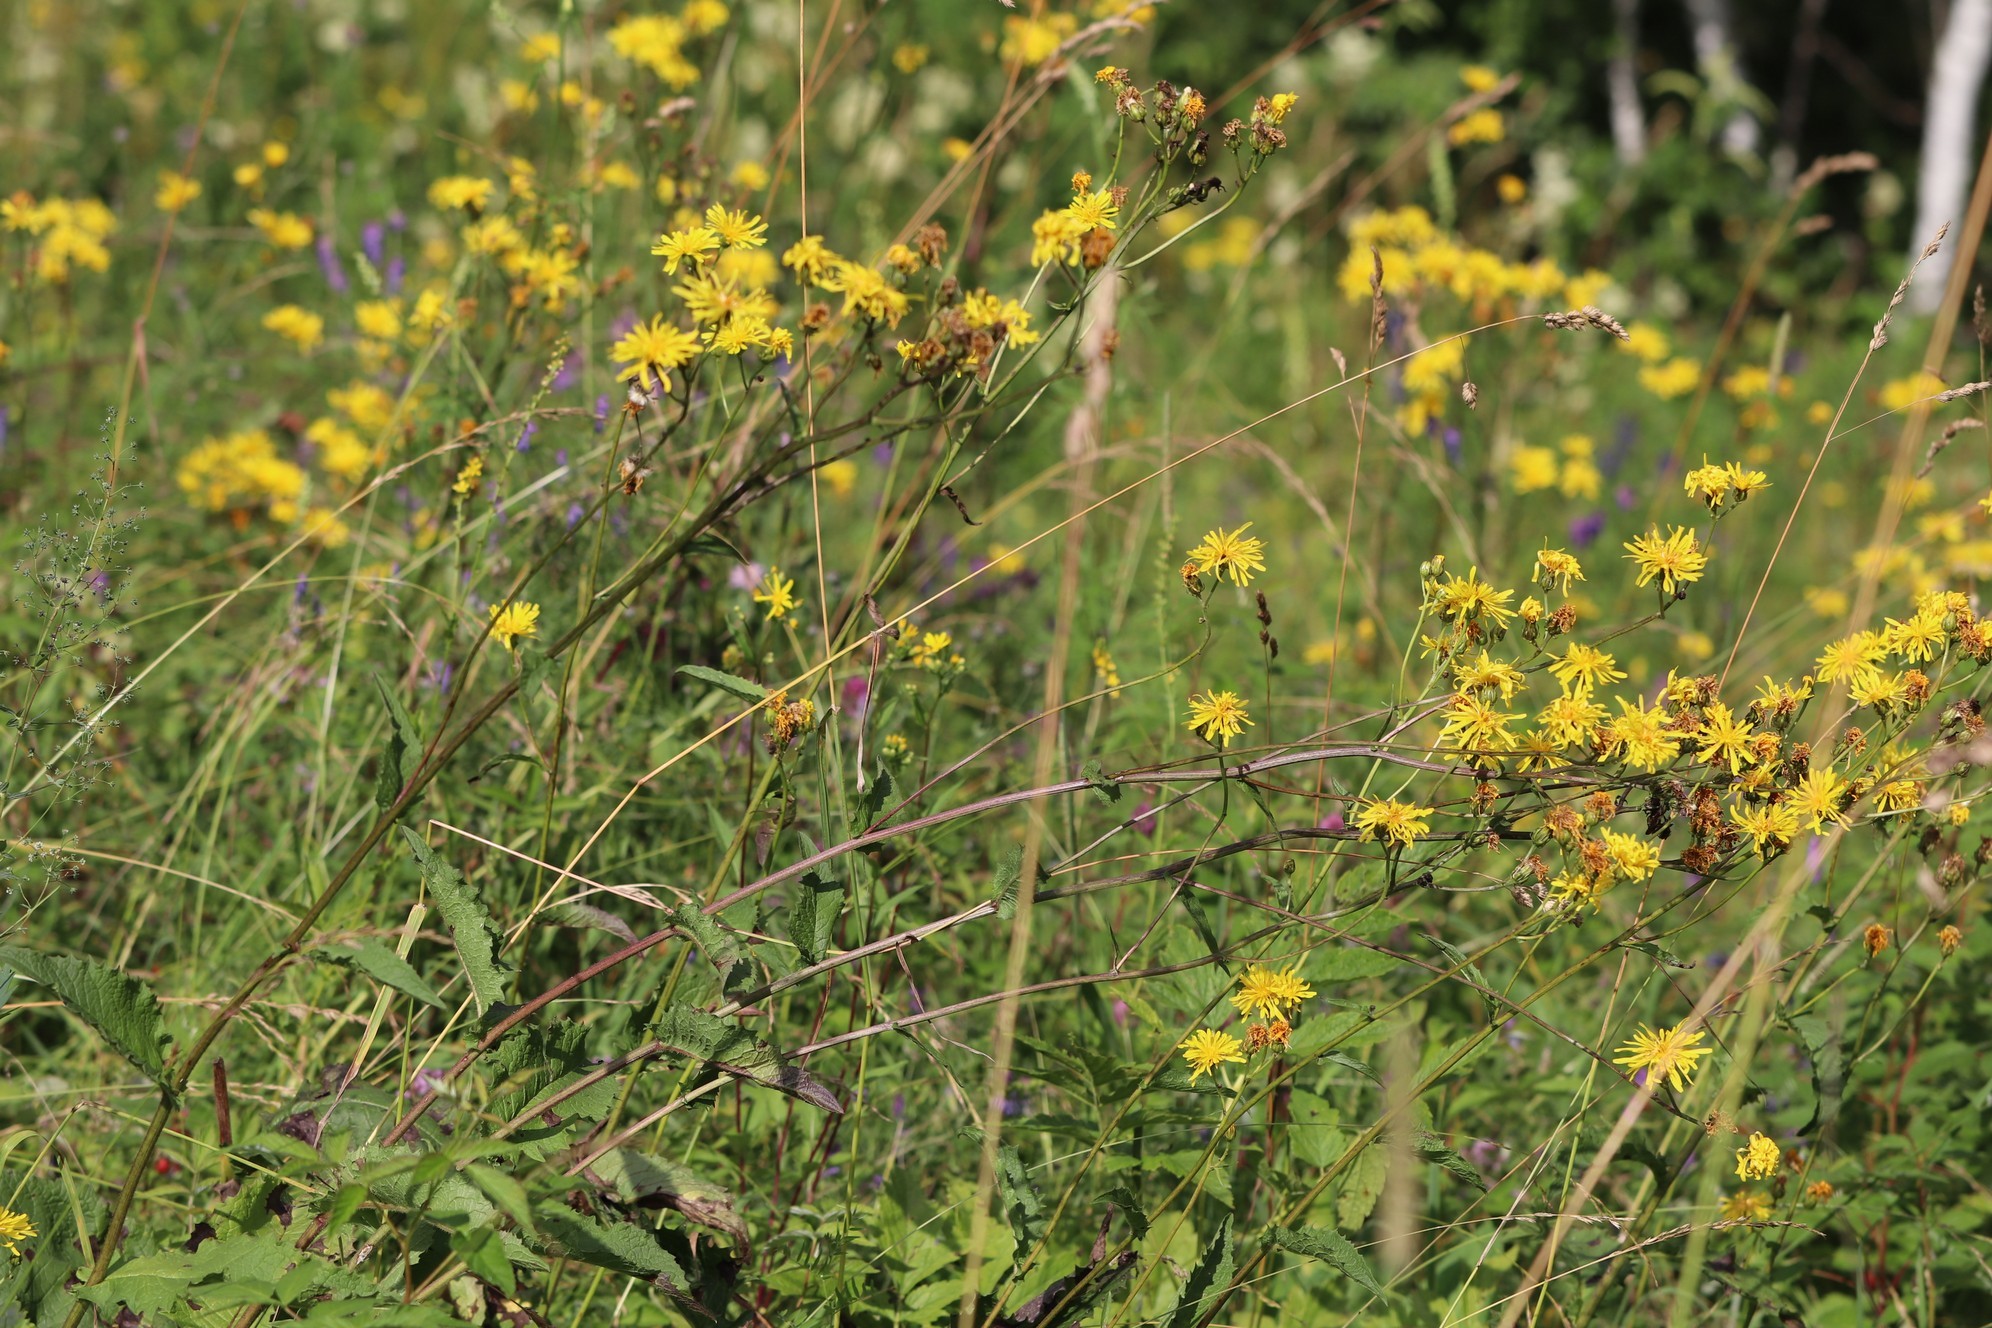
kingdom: Plantae
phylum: Tracheophyta
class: Magnoliopsida
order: Asterales
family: Asteraceae
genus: Crepis
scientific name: Crepis sibirica
